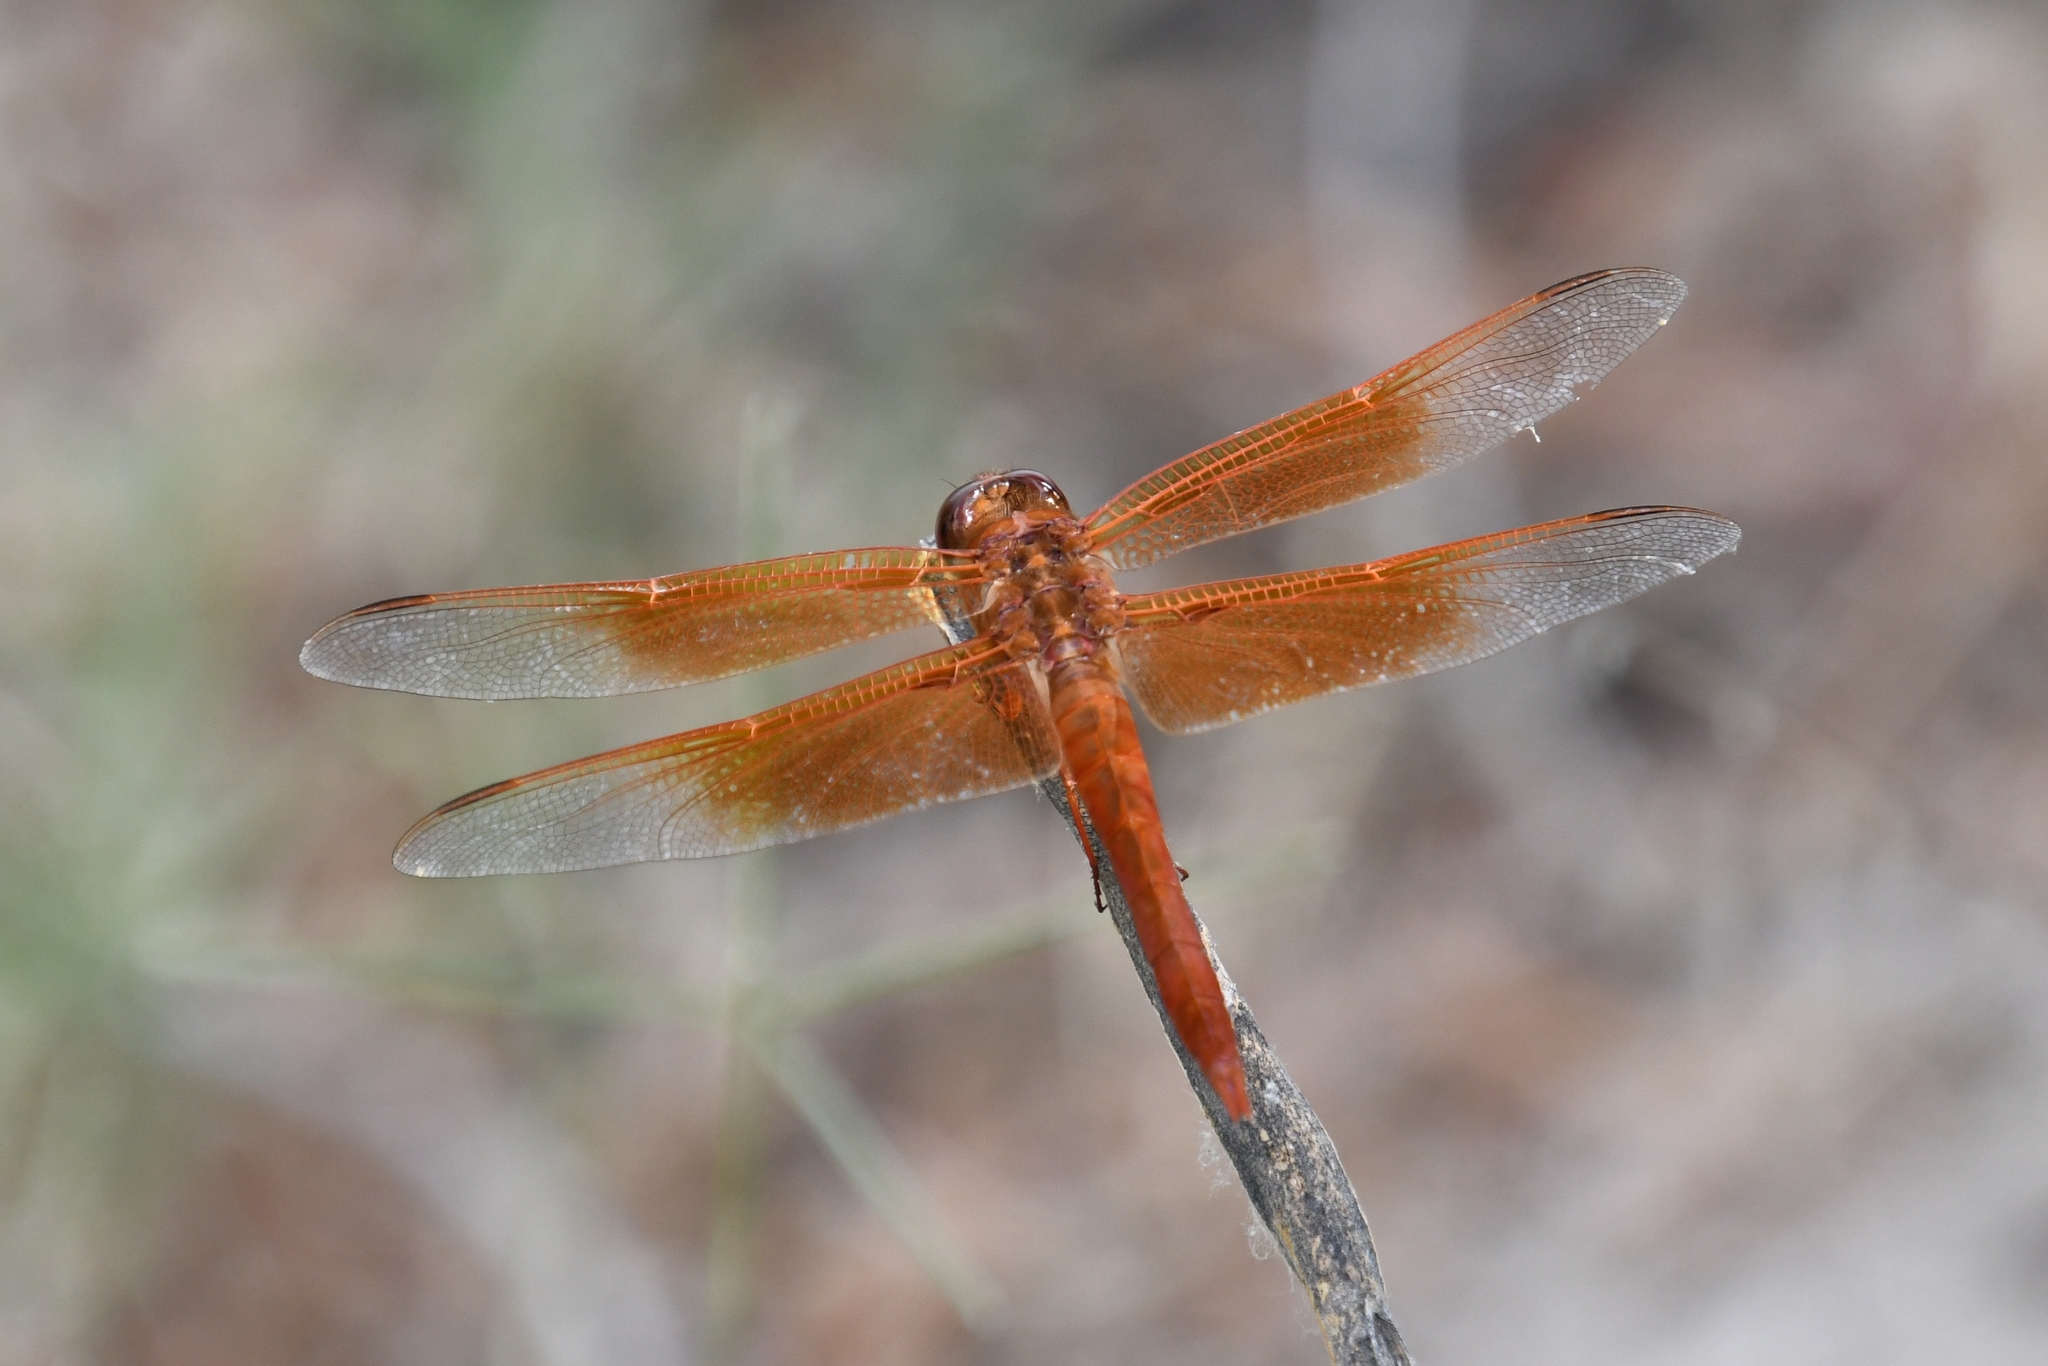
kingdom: Animalia
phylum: Arthropoda
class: Insecta
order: Odonata
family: Libellulidae
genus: Libellula
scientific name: Libellula saturata
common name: Flame skimmer
